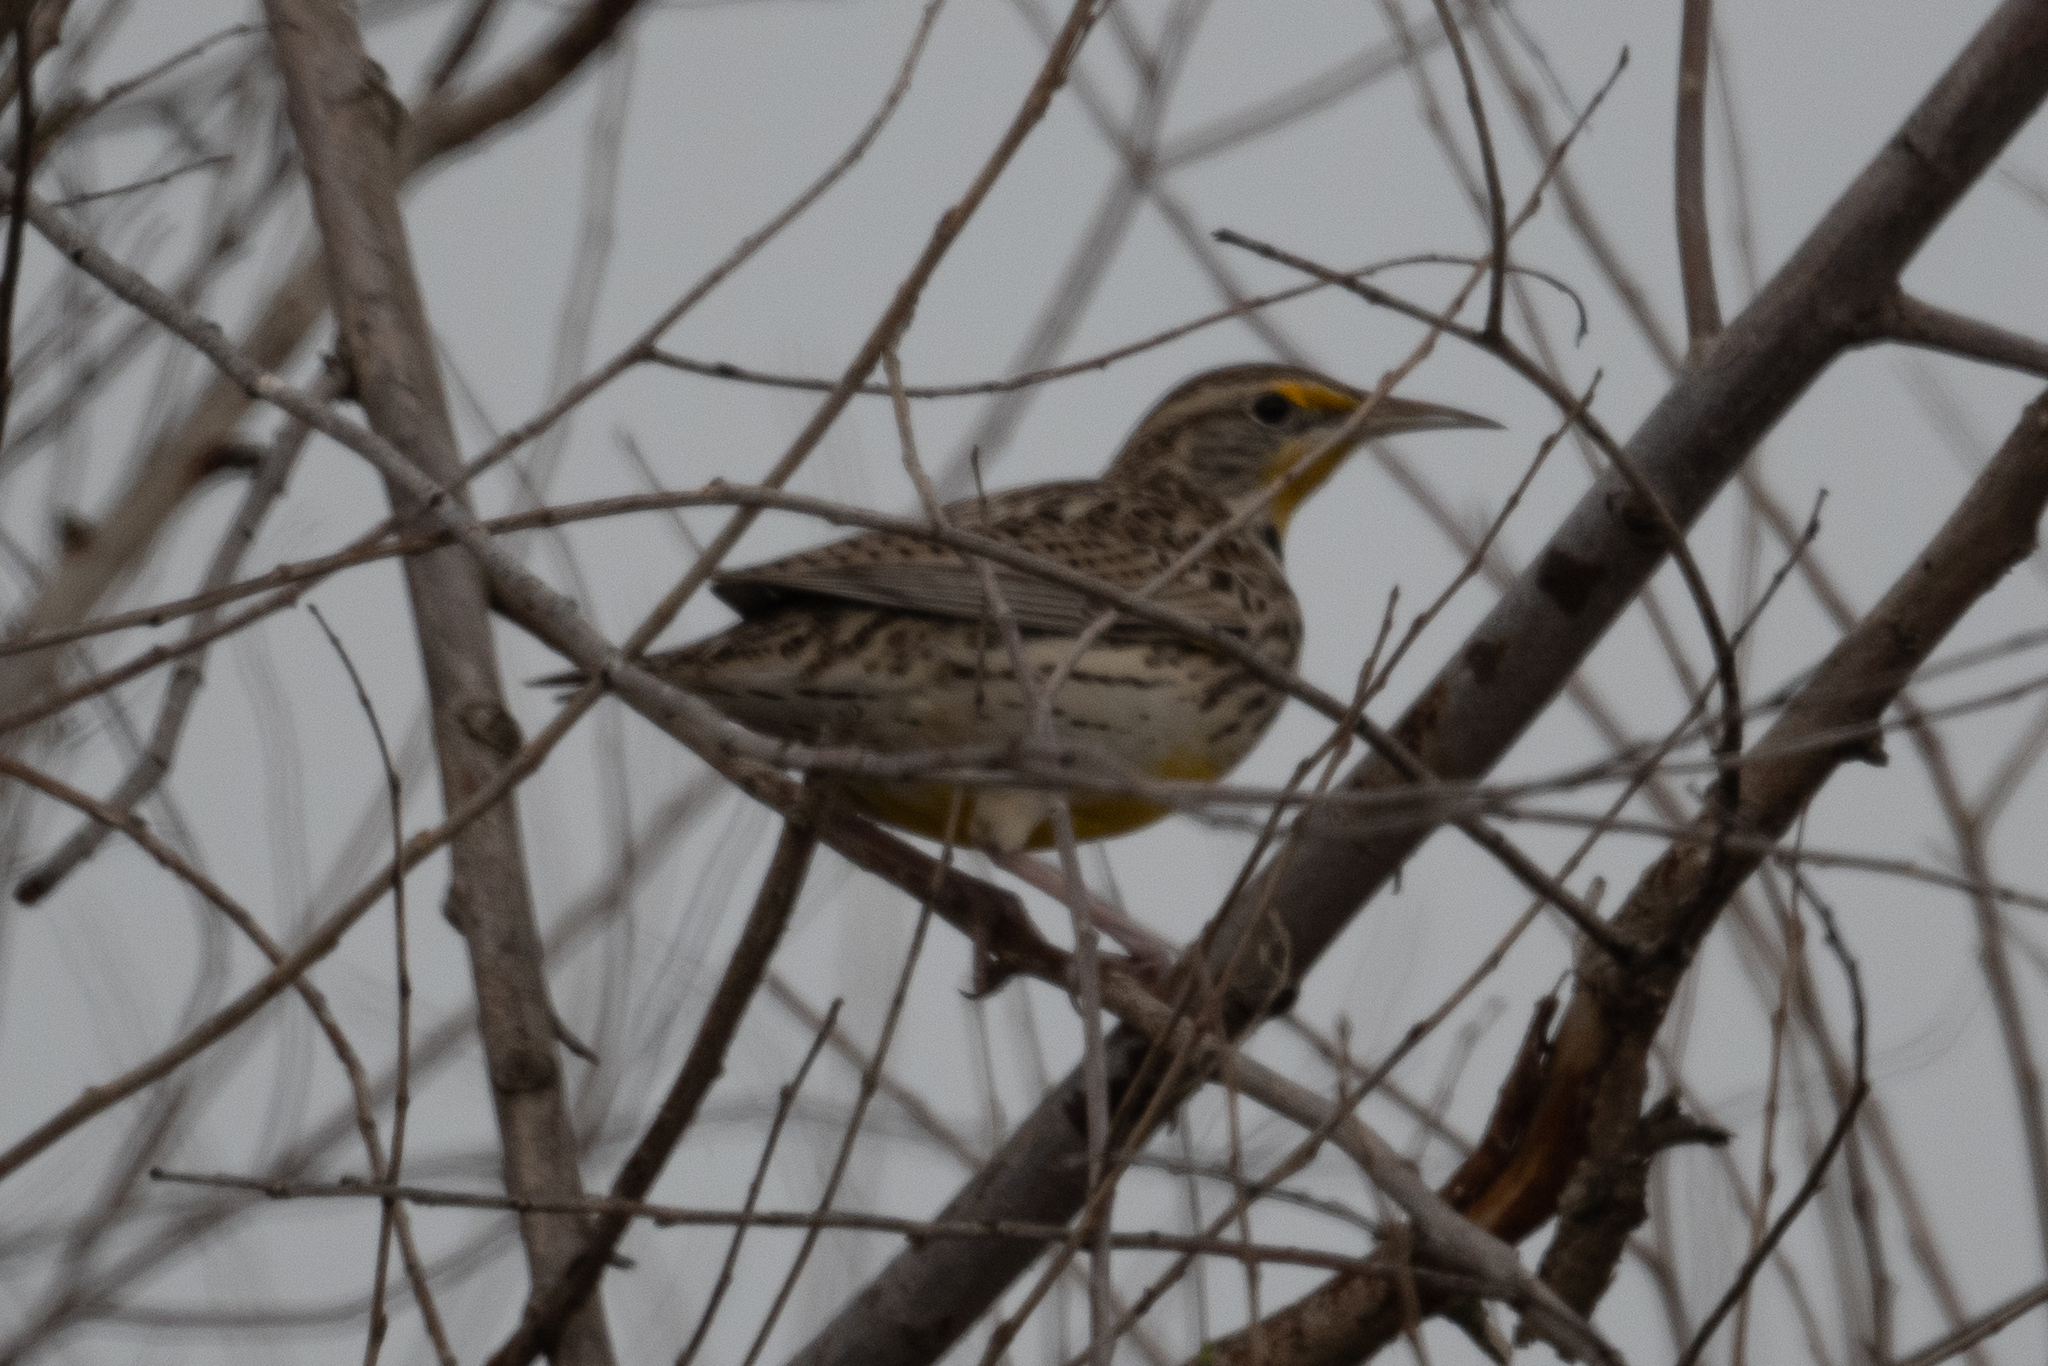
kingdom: Animalia
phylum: Chordata
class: Aves
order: Passeriformes
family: Icteridae
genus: Sturnella
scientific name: Sturnella neglecta
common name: Western meadowlark
